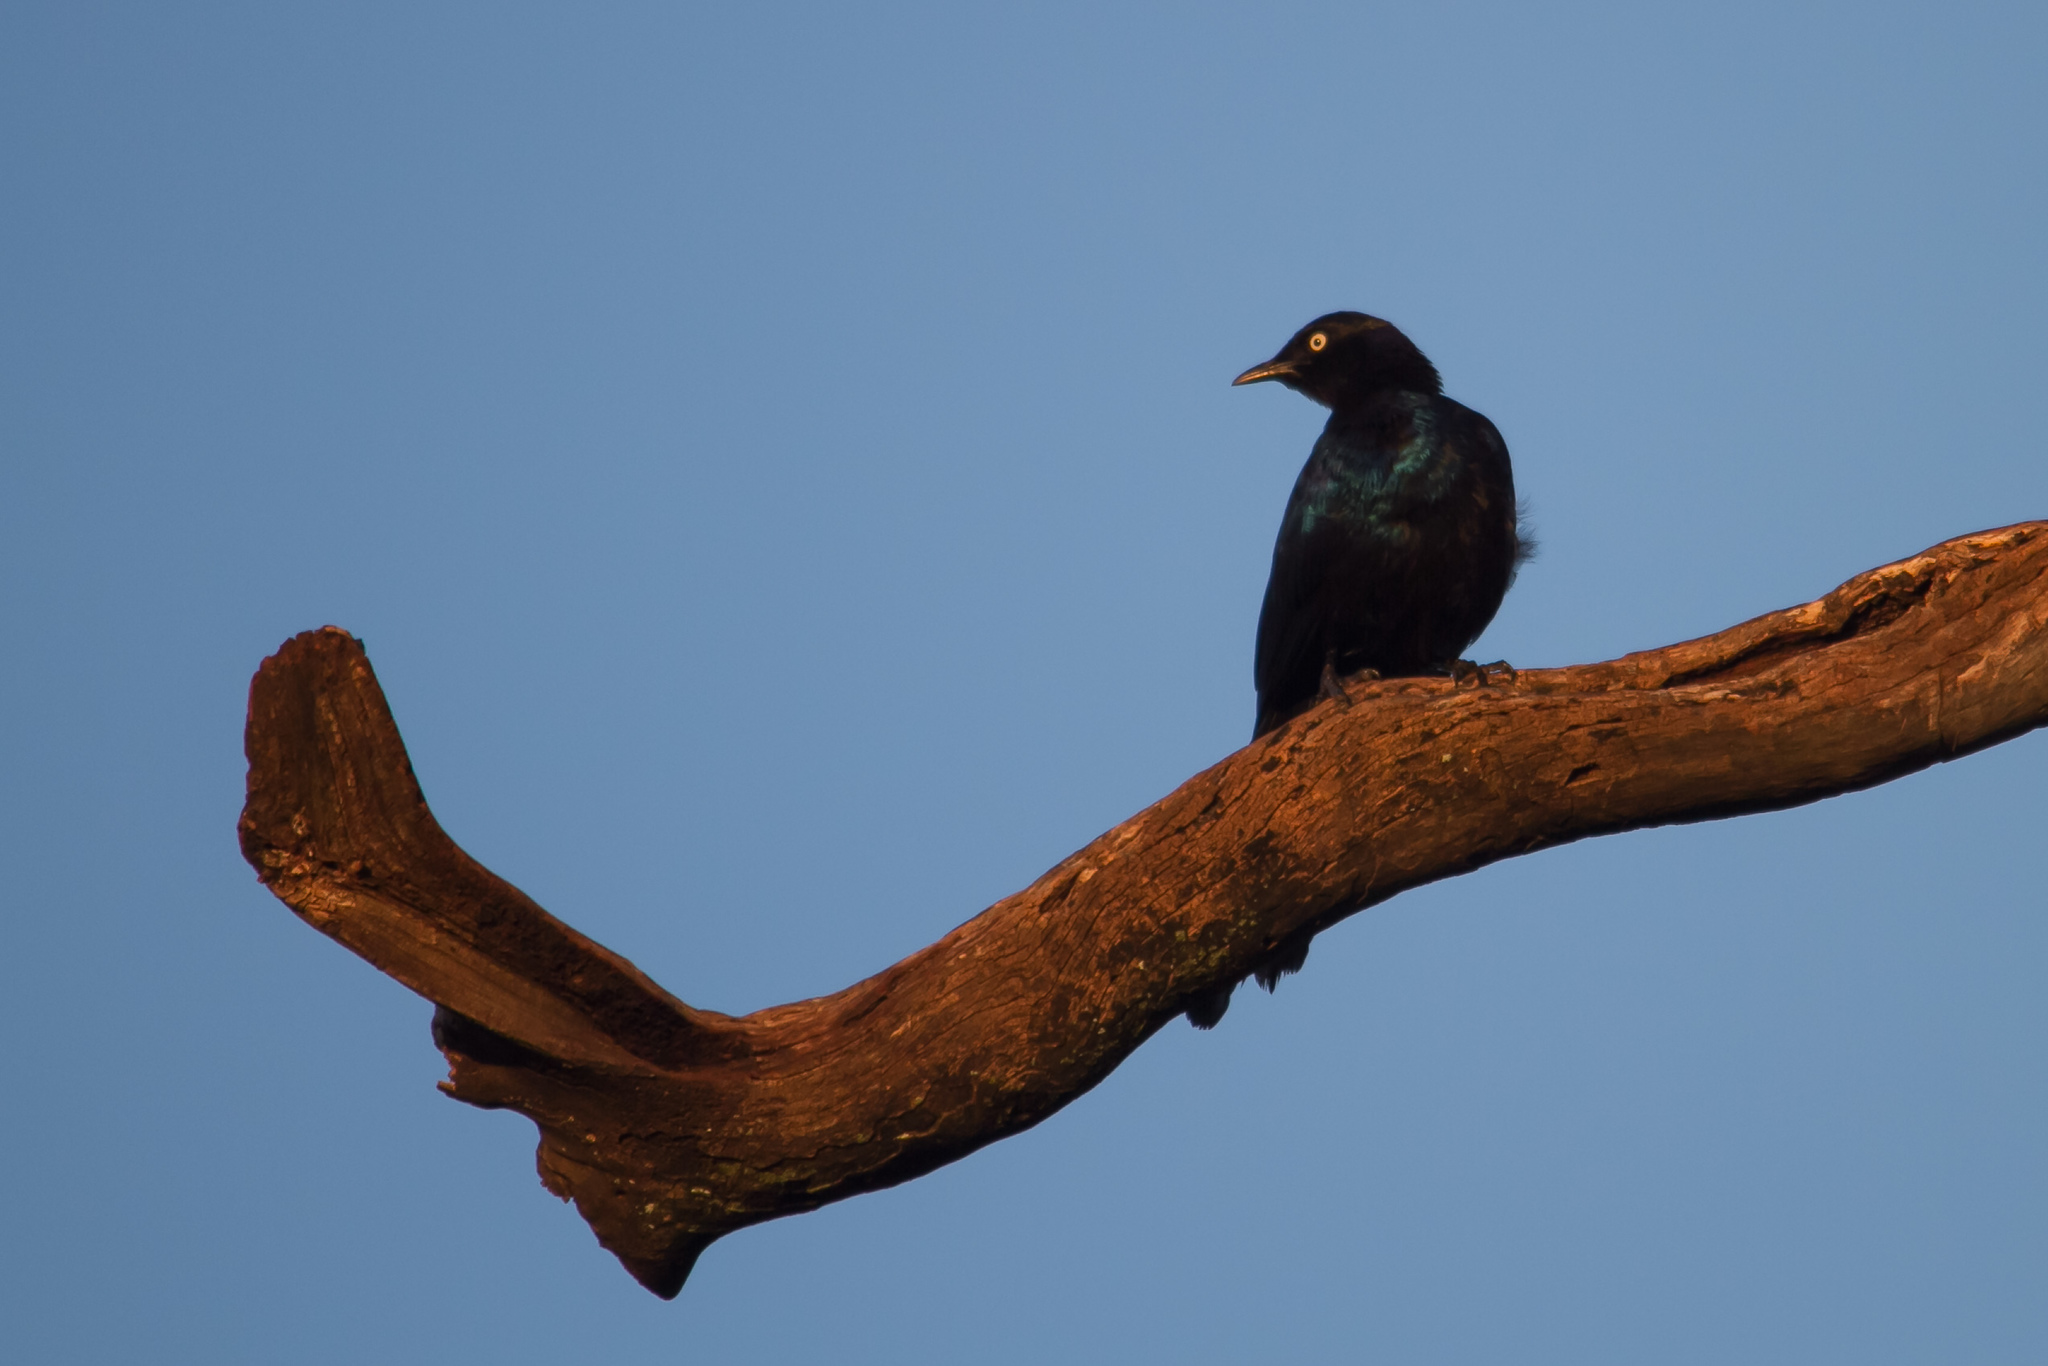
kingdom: Animalia
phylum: Chordata
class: Aves
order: Passeriformes
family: Sturnidae
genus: Lamprotornis
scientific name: Lamprotornis purpuroptera
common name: Rüppell's starling
